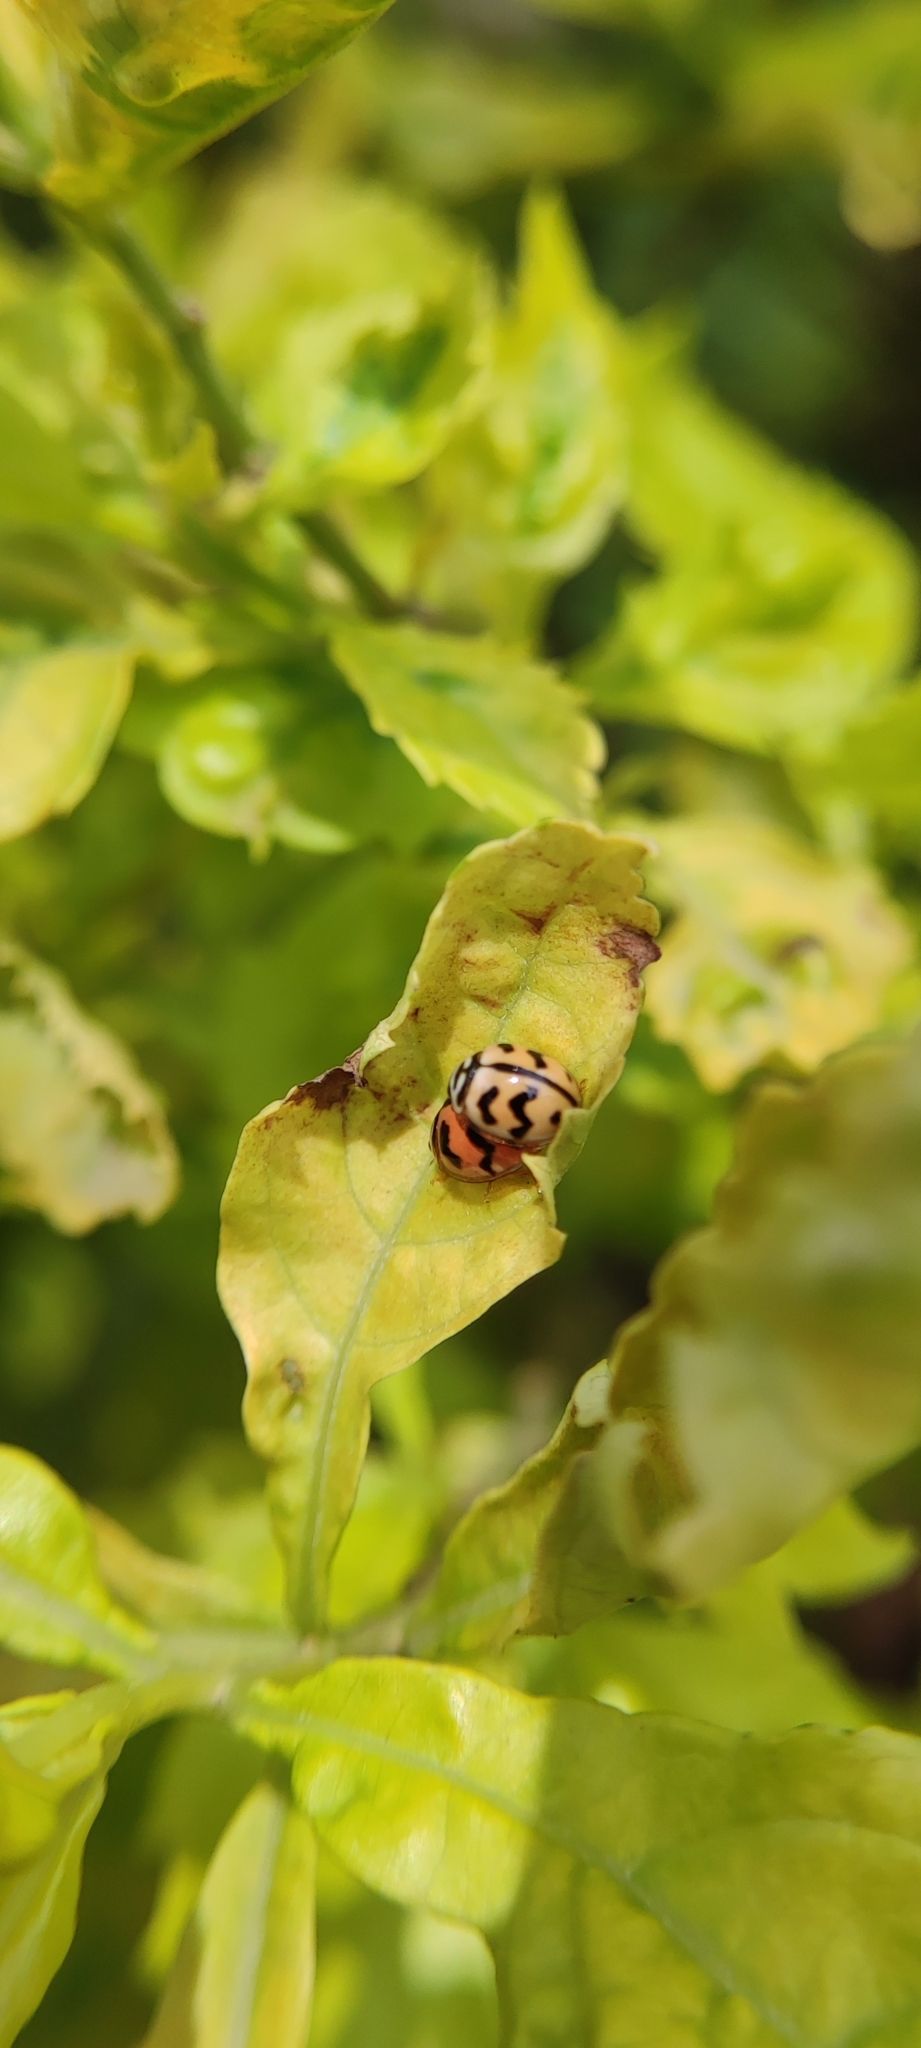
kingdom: Animalia
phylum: Arthropoda
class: Insecta
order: Coleoptera
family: Coccinellidae
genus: Cheilomenes
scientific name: Cheilomenes sexmaculata
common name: Ladybird beetle
